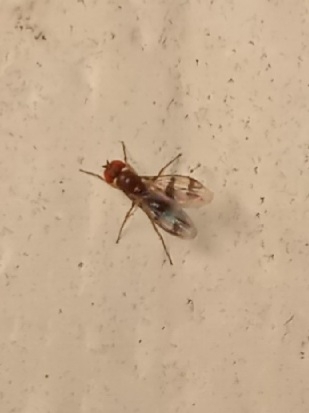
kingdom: Animalia
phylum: Arthropoda
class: Insecta
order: Diptera
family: Drosophilidae
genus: Chymomyza
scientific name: Chymomyza amoena
